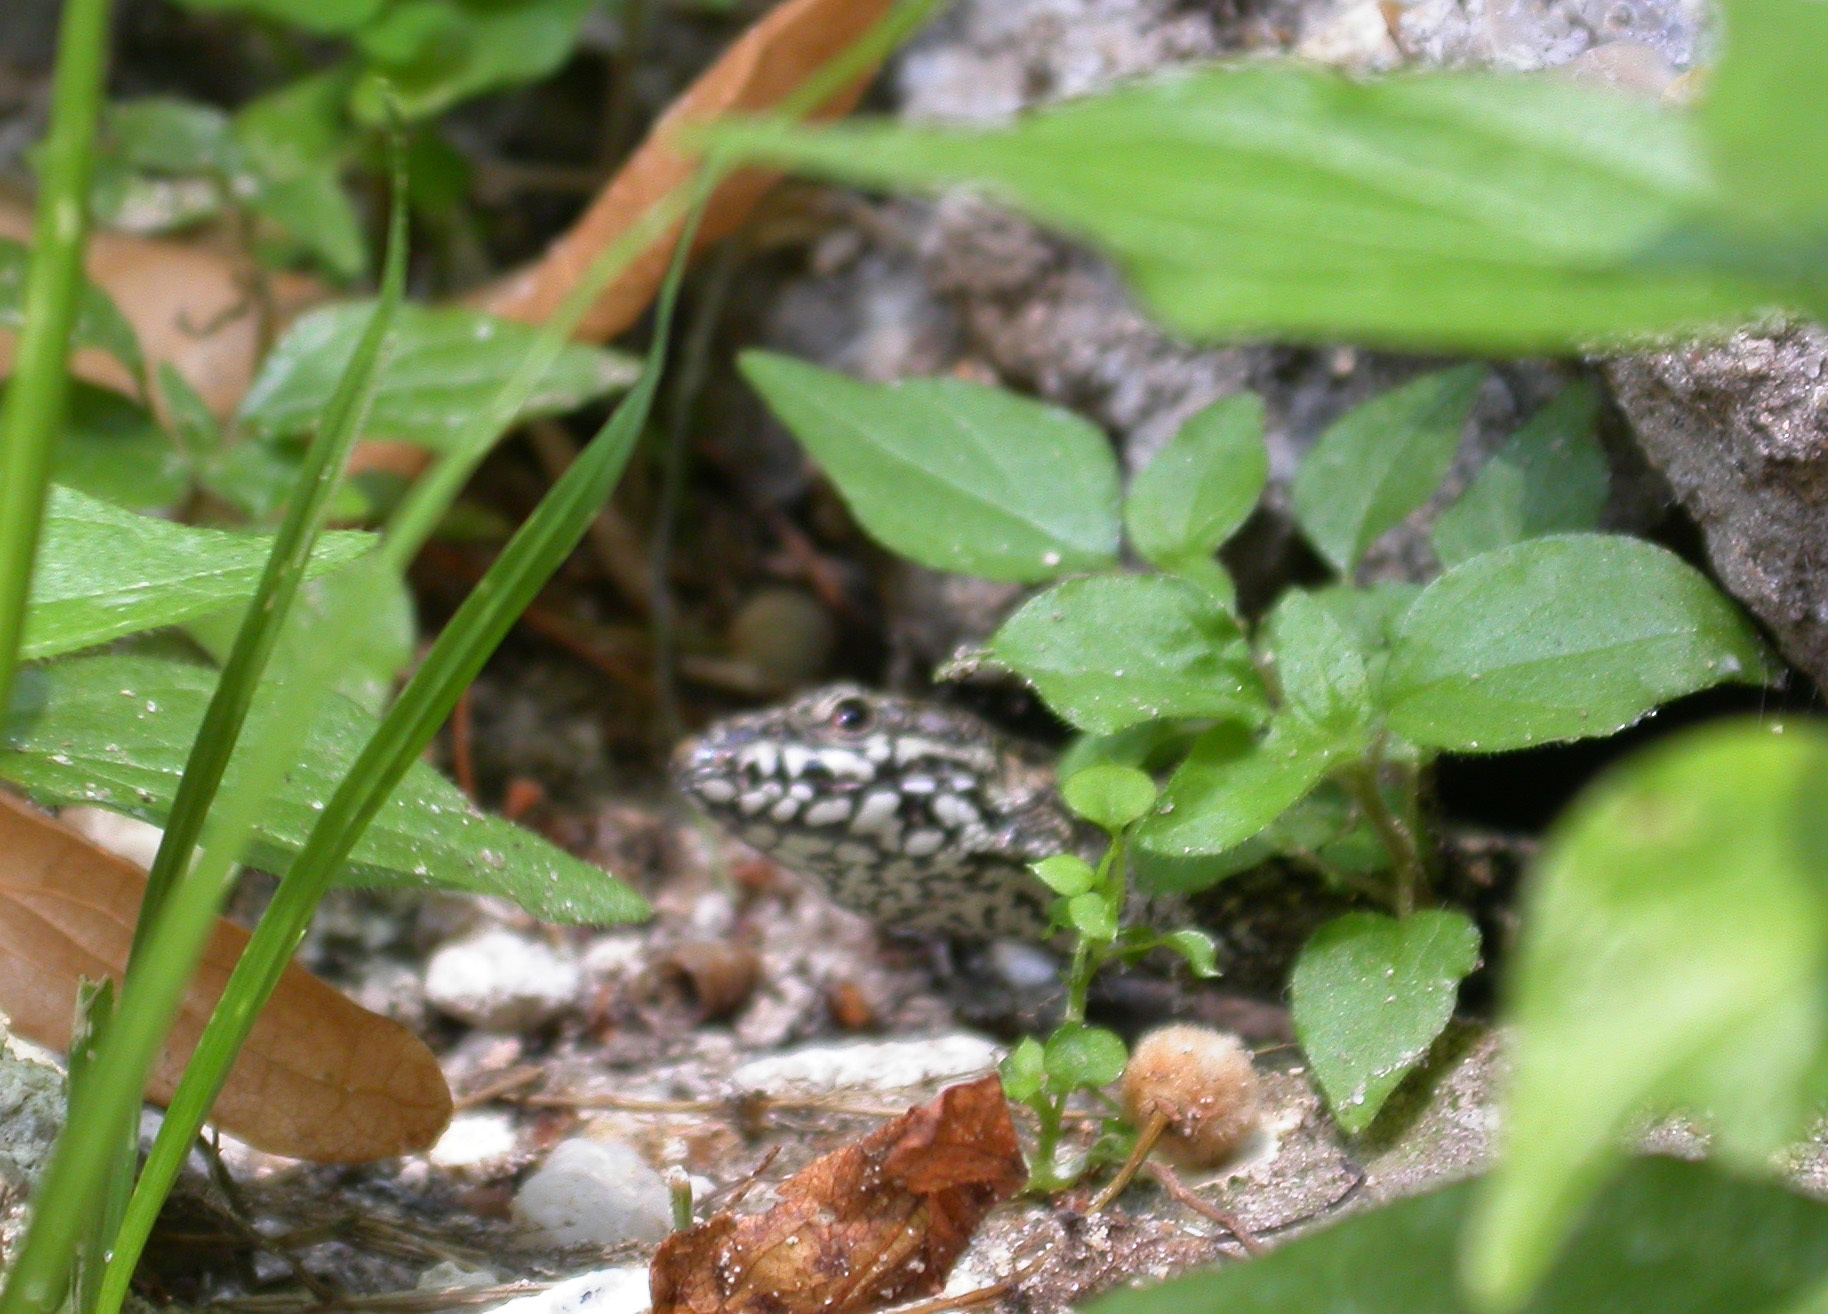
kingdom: Animalia
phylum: Chordata
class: Squamata
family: Lacertidae
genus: Podarcis
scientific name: Podarcis muralis
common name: Common wall lizard
